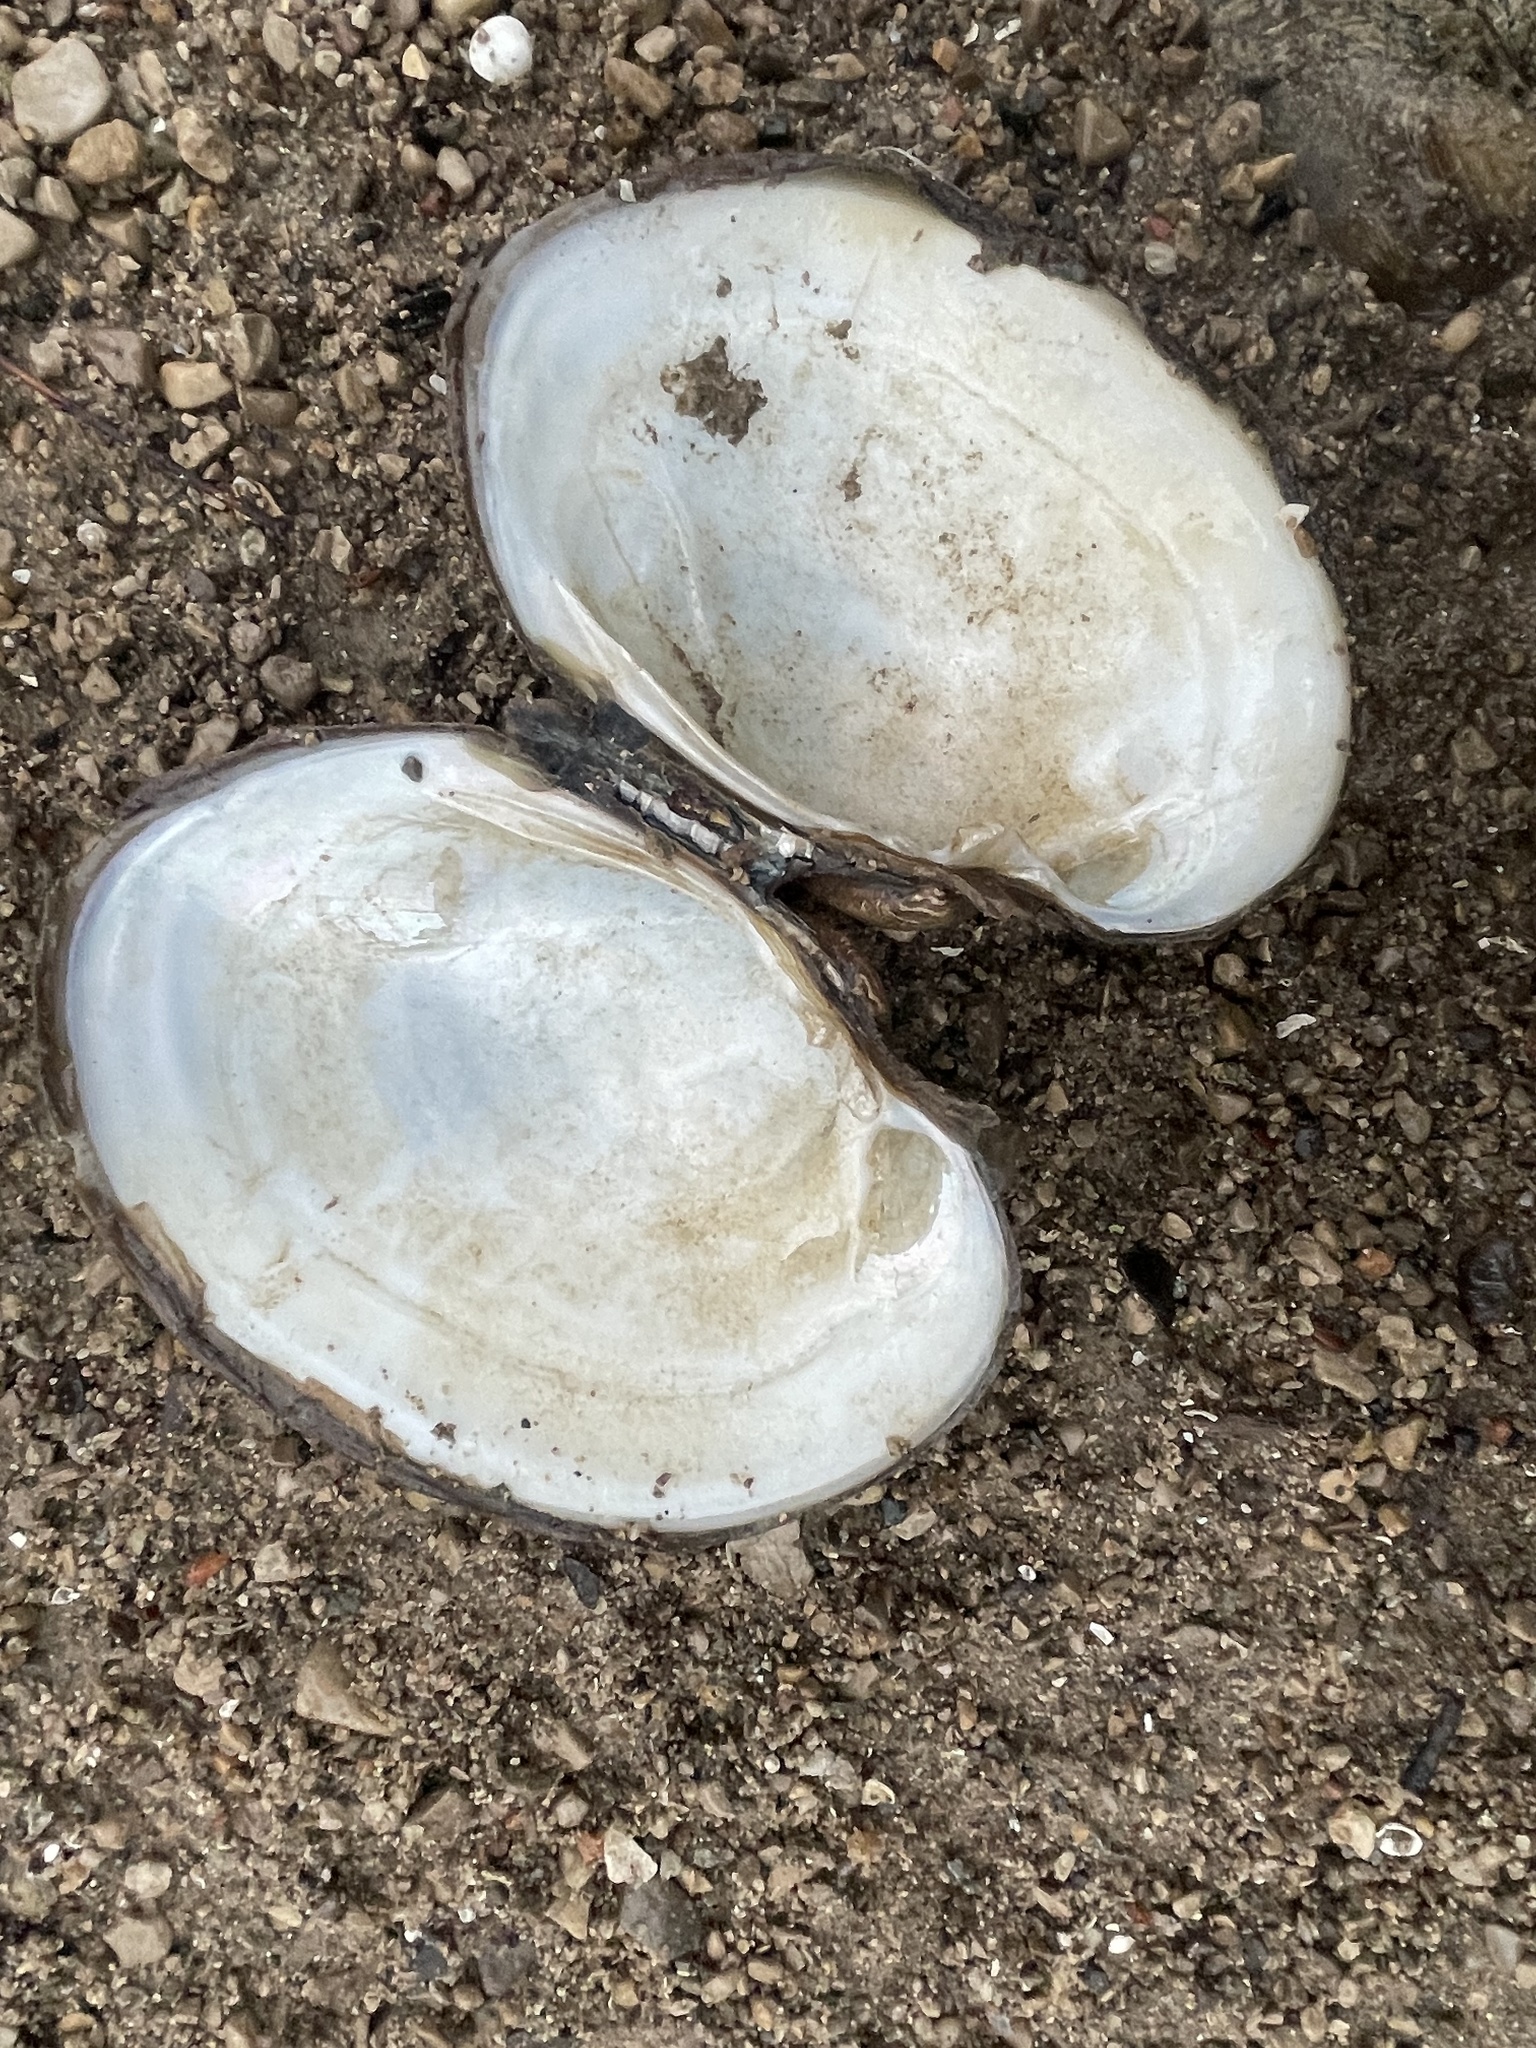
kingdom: Animalia
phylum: Mollusca
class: Bivalvia
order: Unionida
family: Unionidae
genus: Lampsilis
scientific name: Lampsilis cardium
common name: Plain pocketbook
